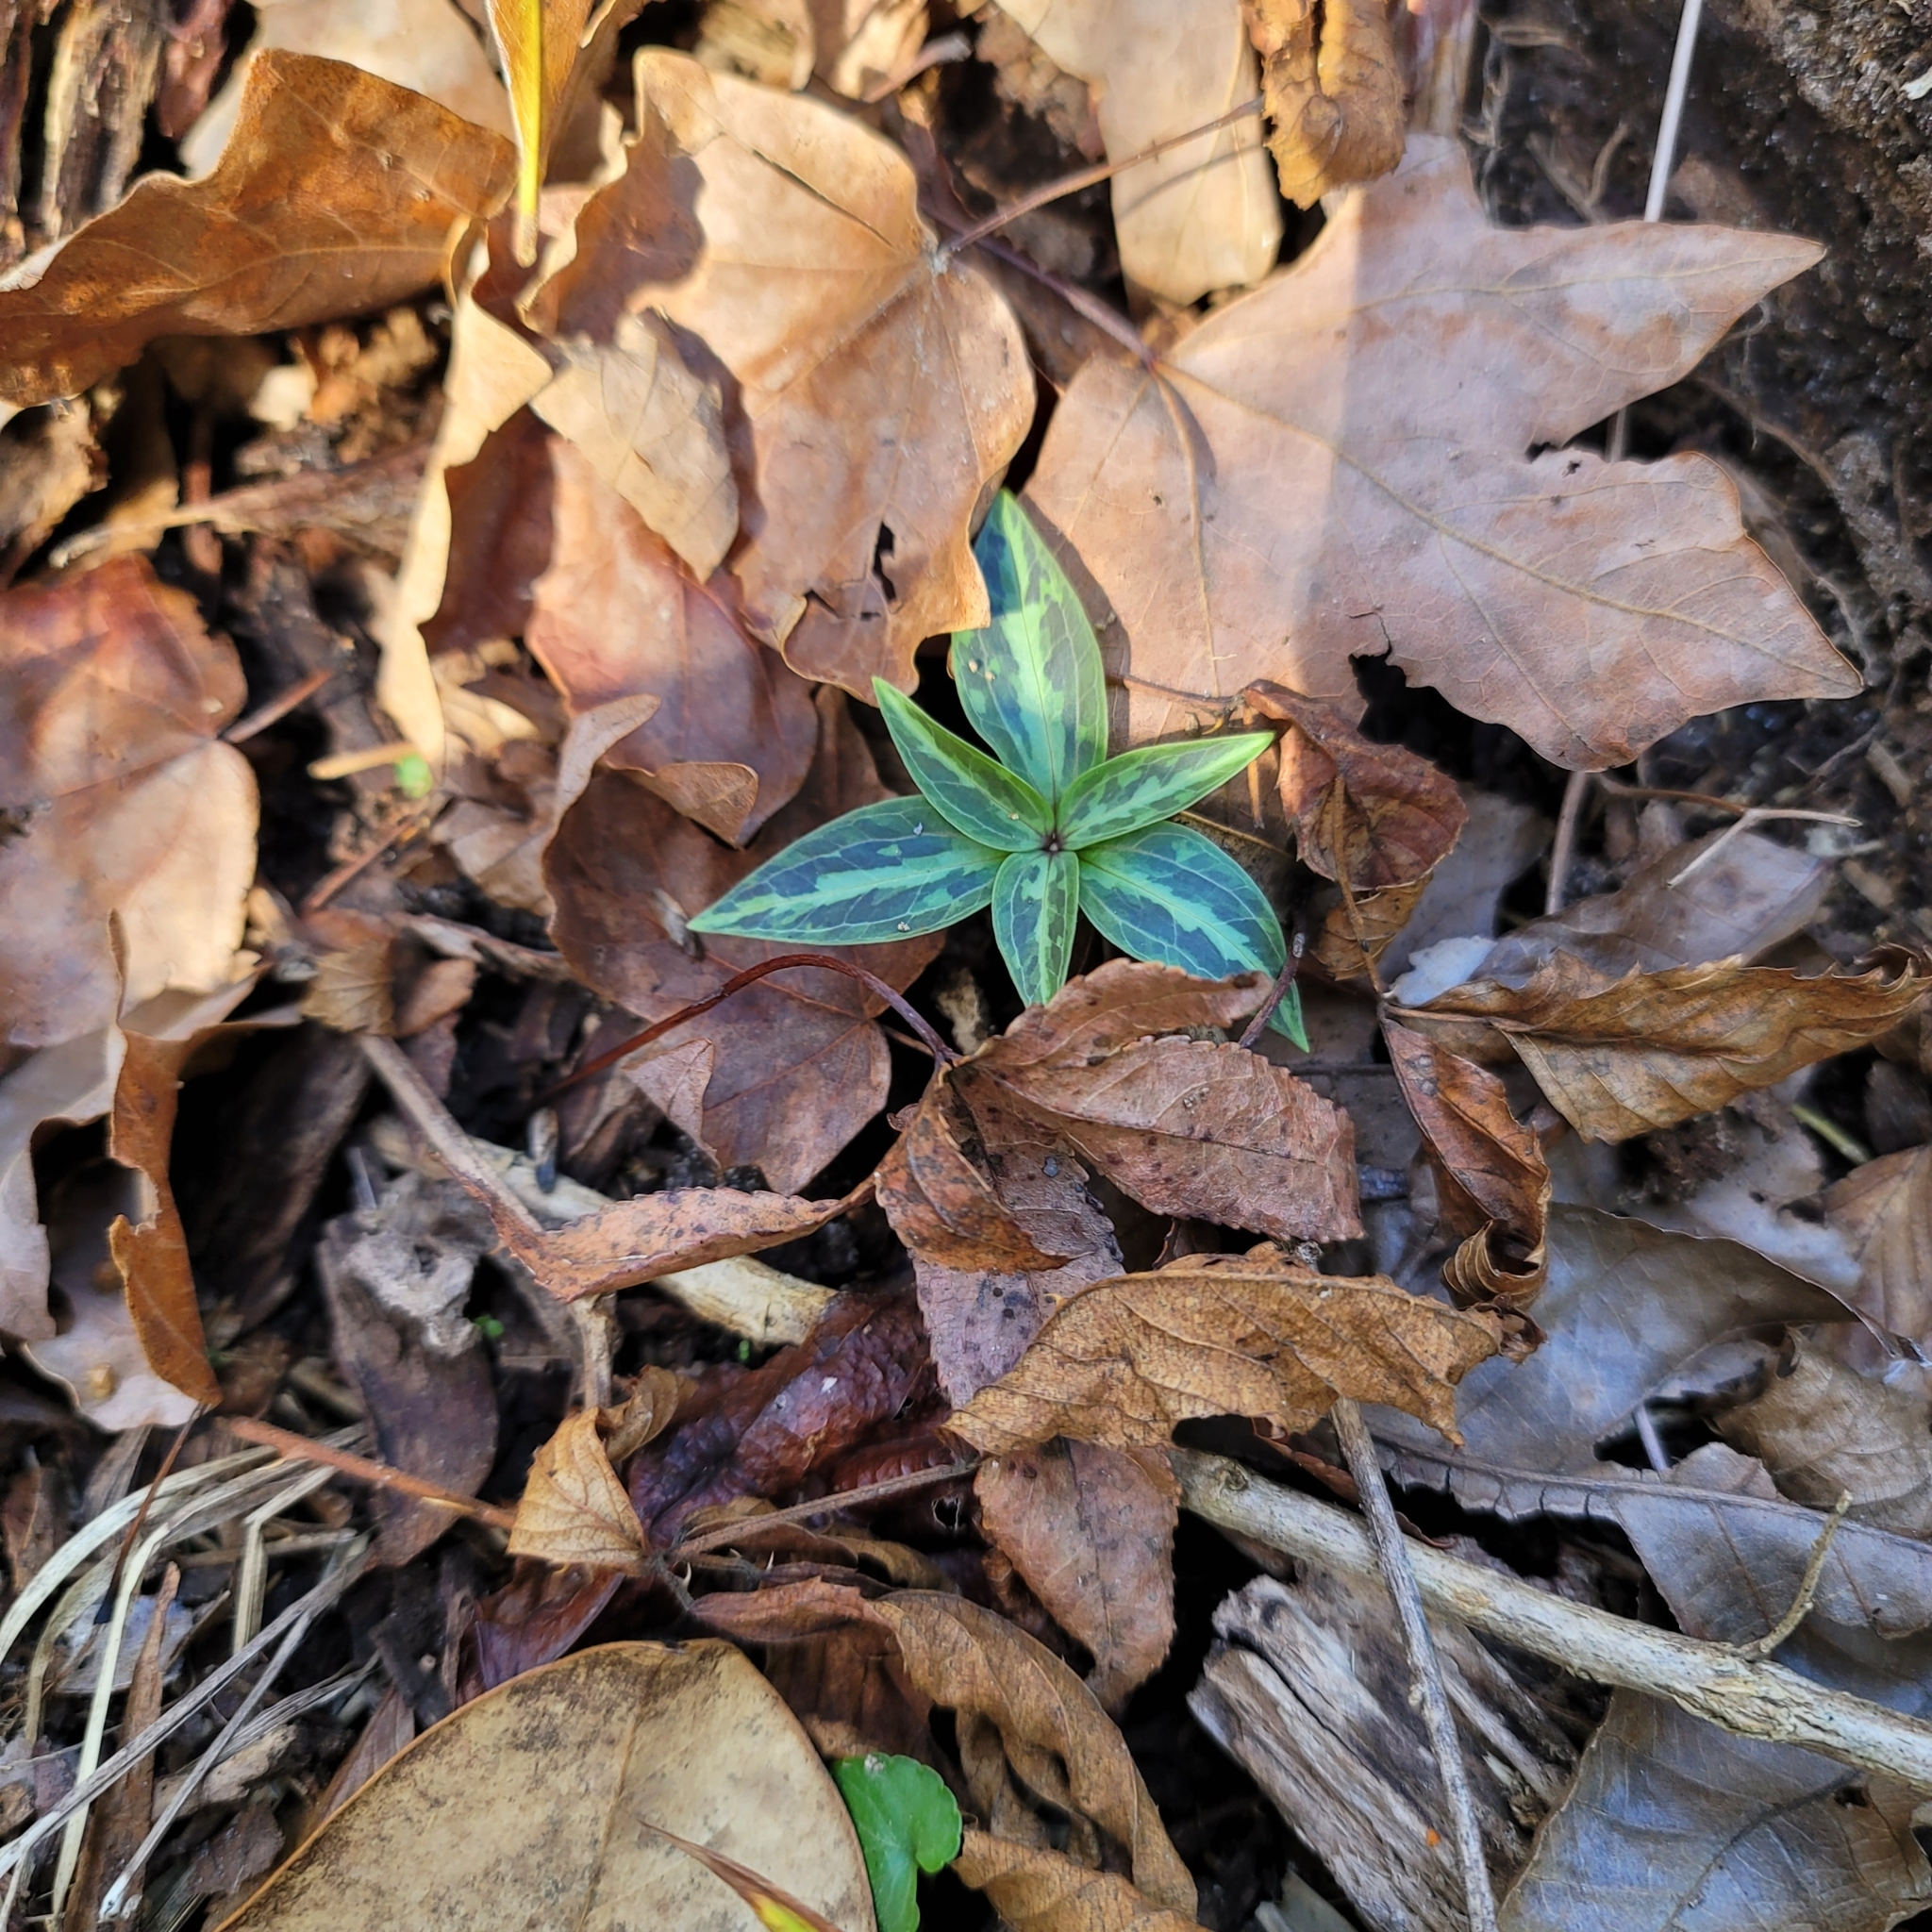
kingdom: Plantae
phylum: Tracheophyta
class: Liliopsida
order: Liliales
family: Melanthiaceae
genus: Trillium
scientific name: Trillium underwoodii
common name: Longbract wakerobin
